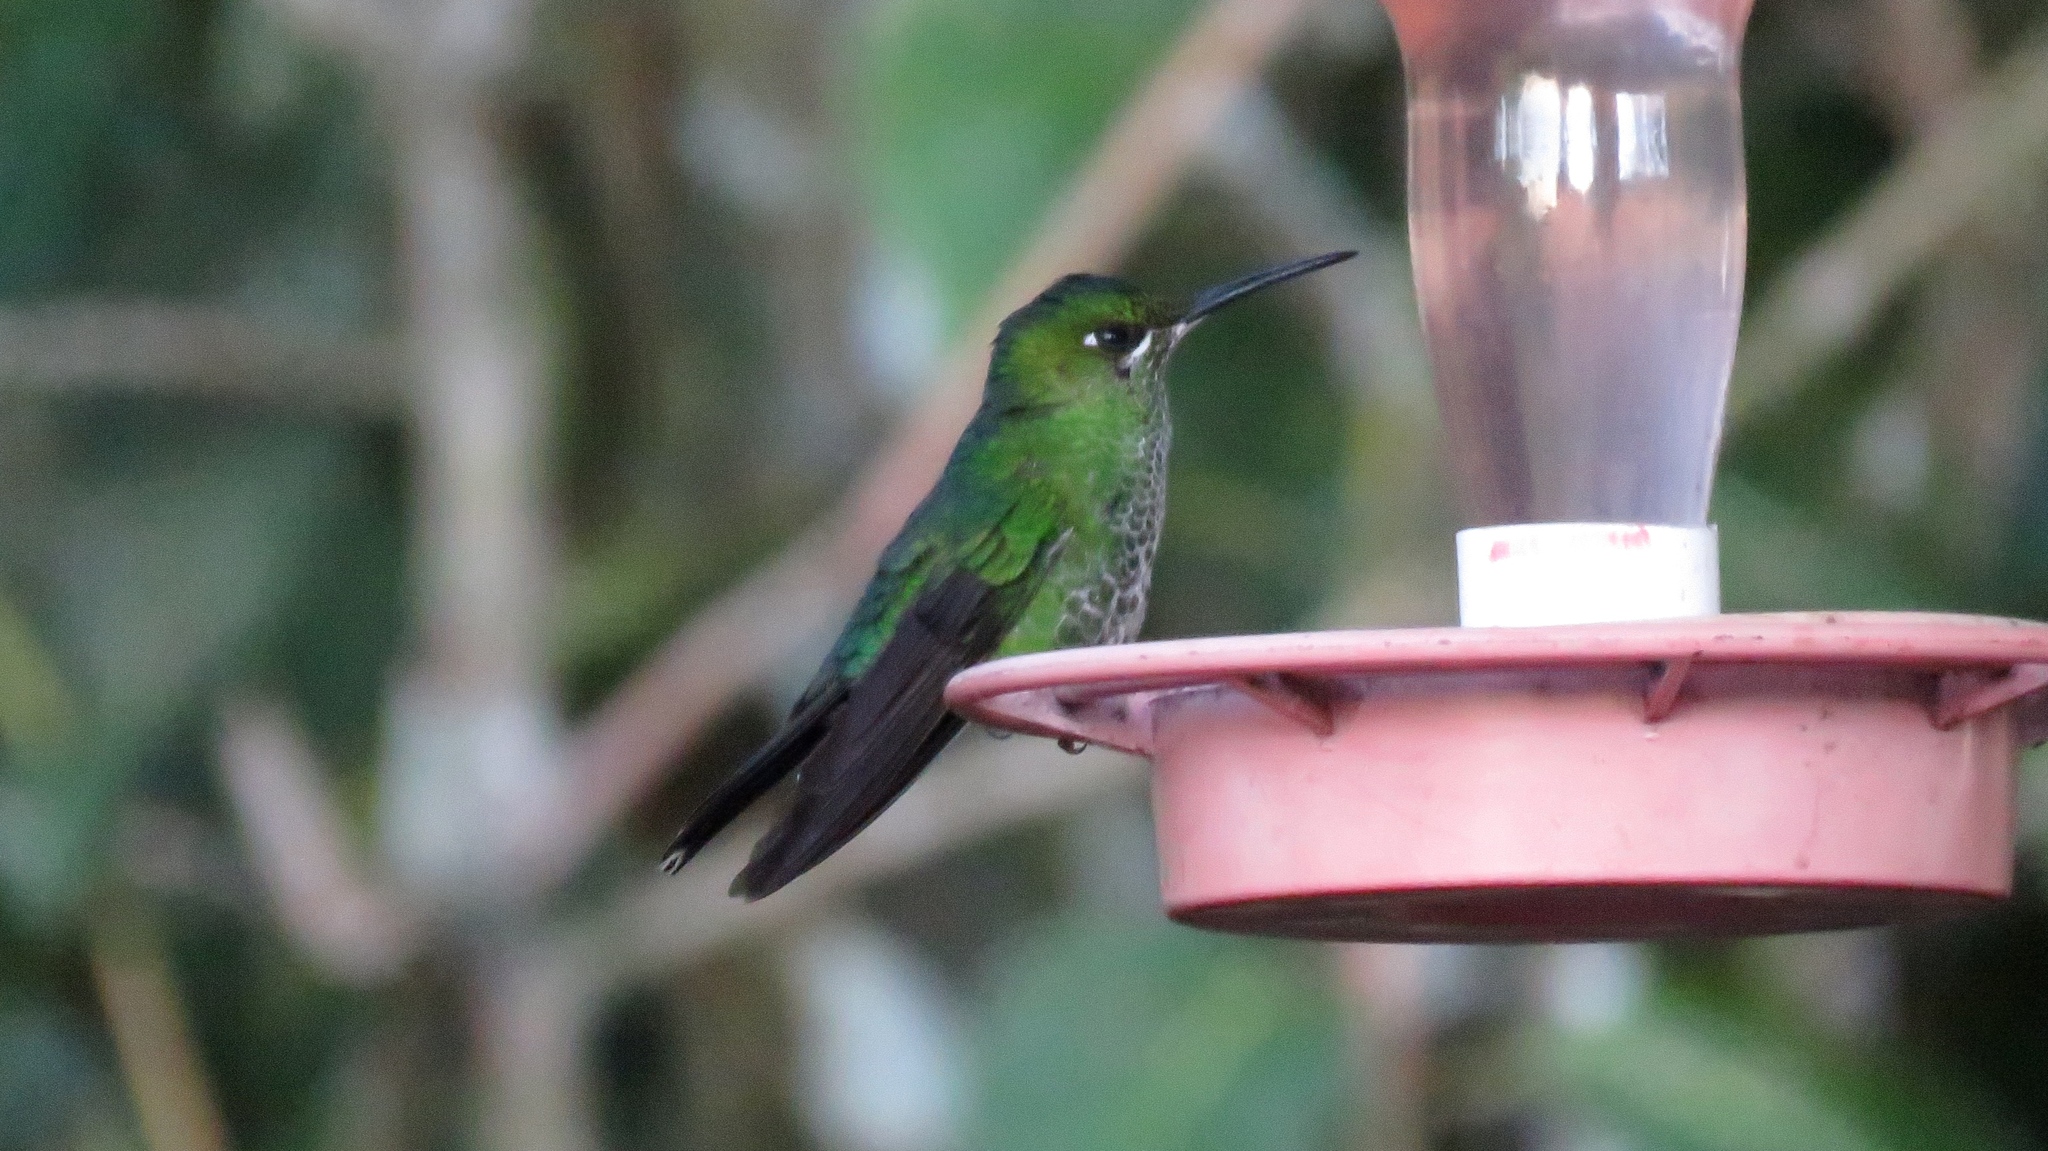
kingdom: Animalia
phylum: Chordata
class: Aves
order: Apodiformes
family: Trochilidae
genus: Heliodoxa
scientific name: Heliodoxa jacula
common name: Green-crowned brilliant
